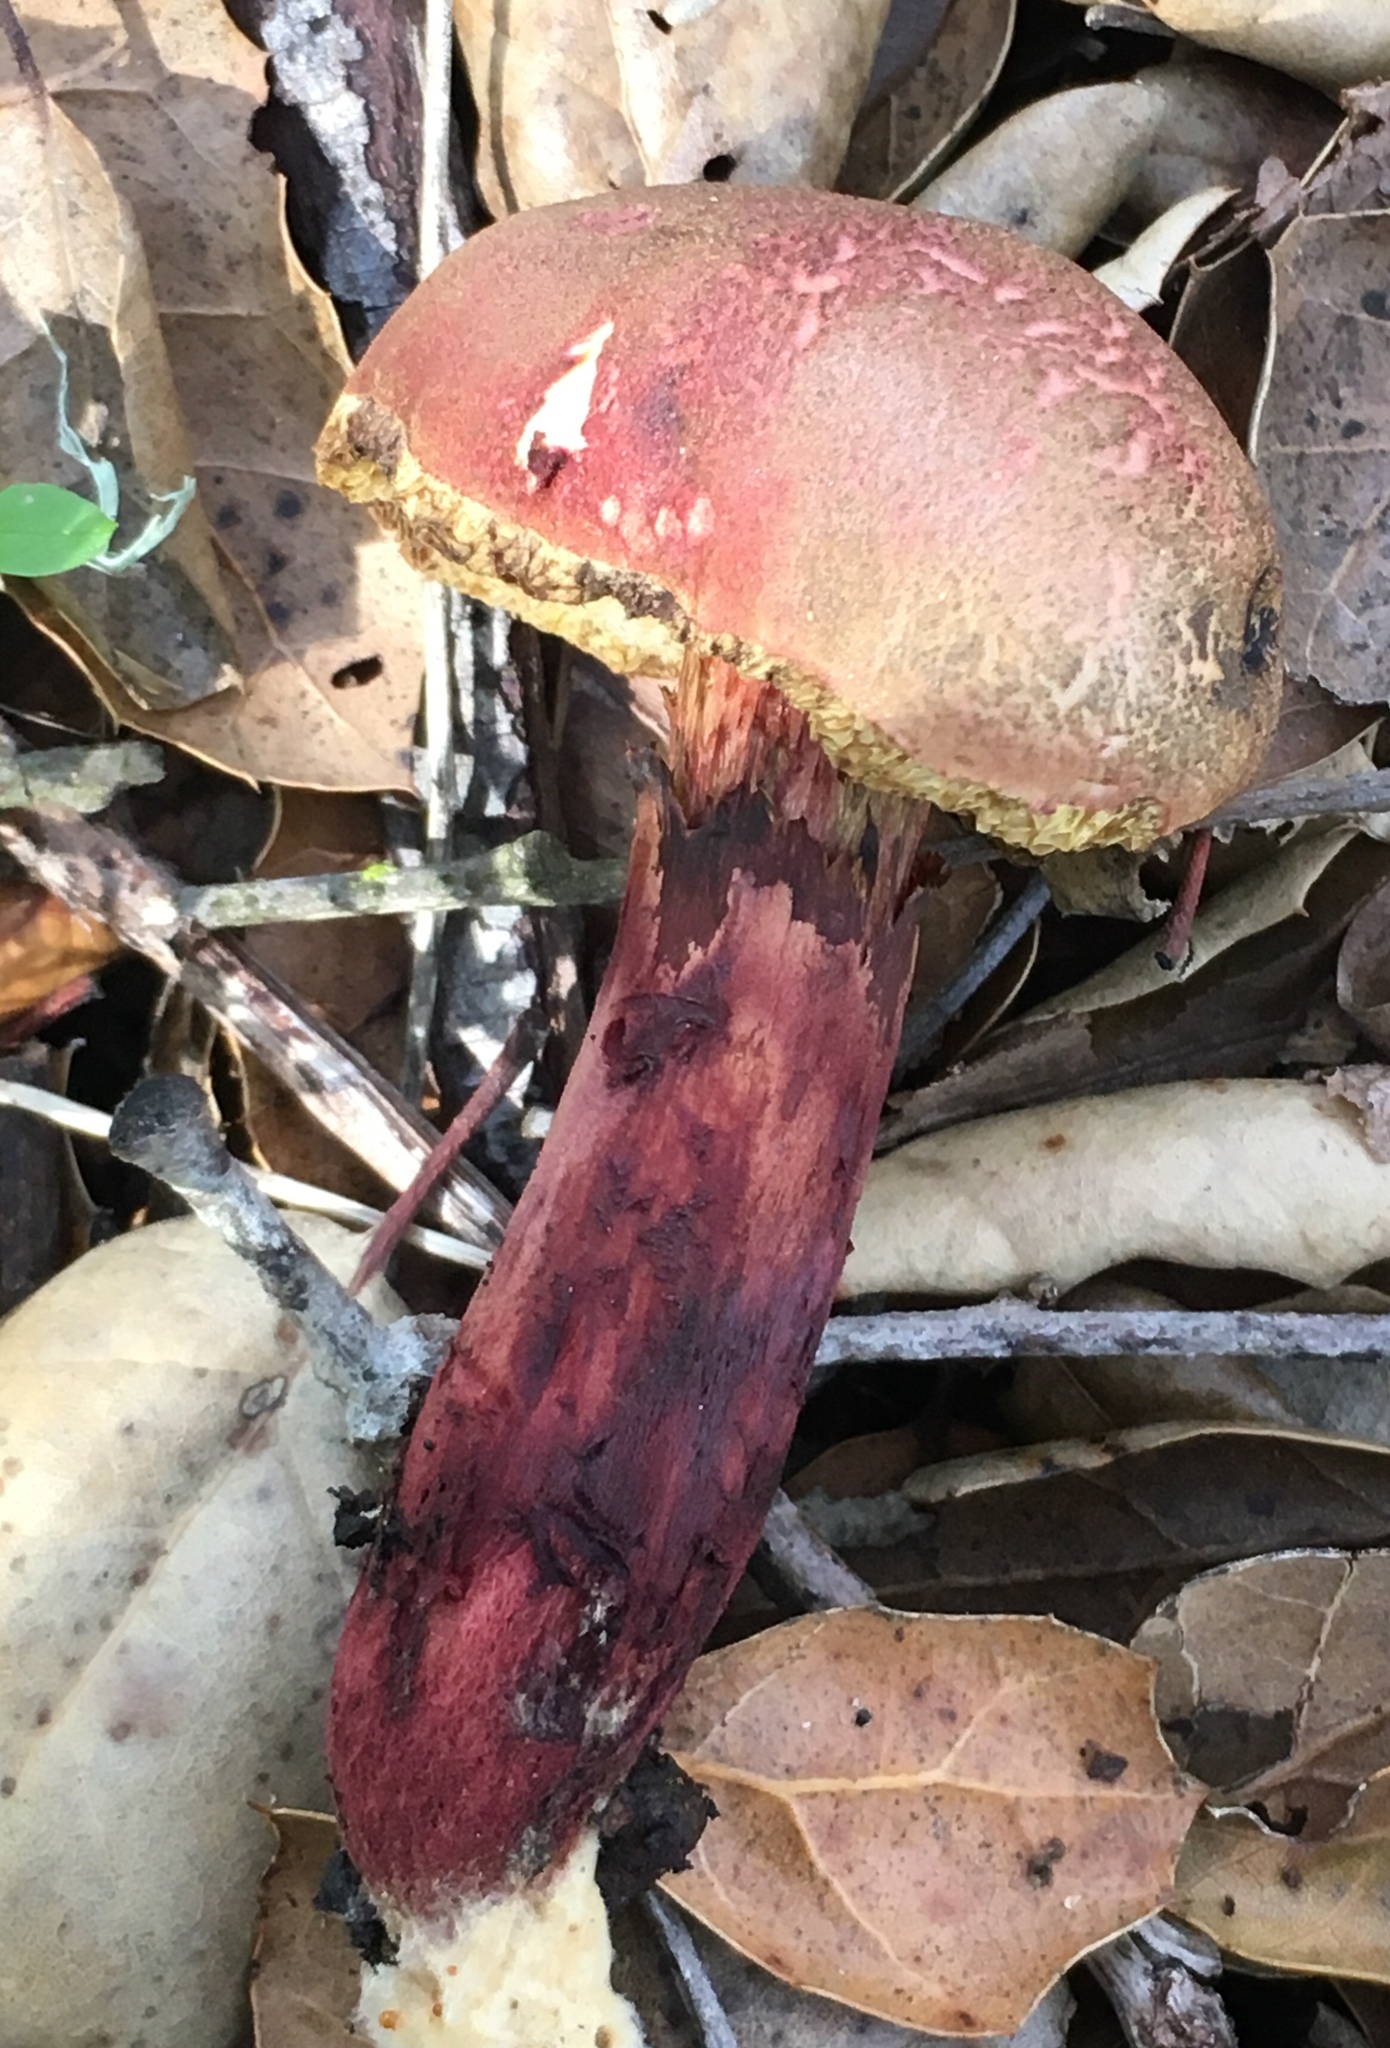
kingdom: Fungi
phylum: Basidiomycota
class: Agaricomycetes
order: Boletales
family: Boletaceae
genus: Xerocomellus
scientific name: Xerocomellus dryophilus
